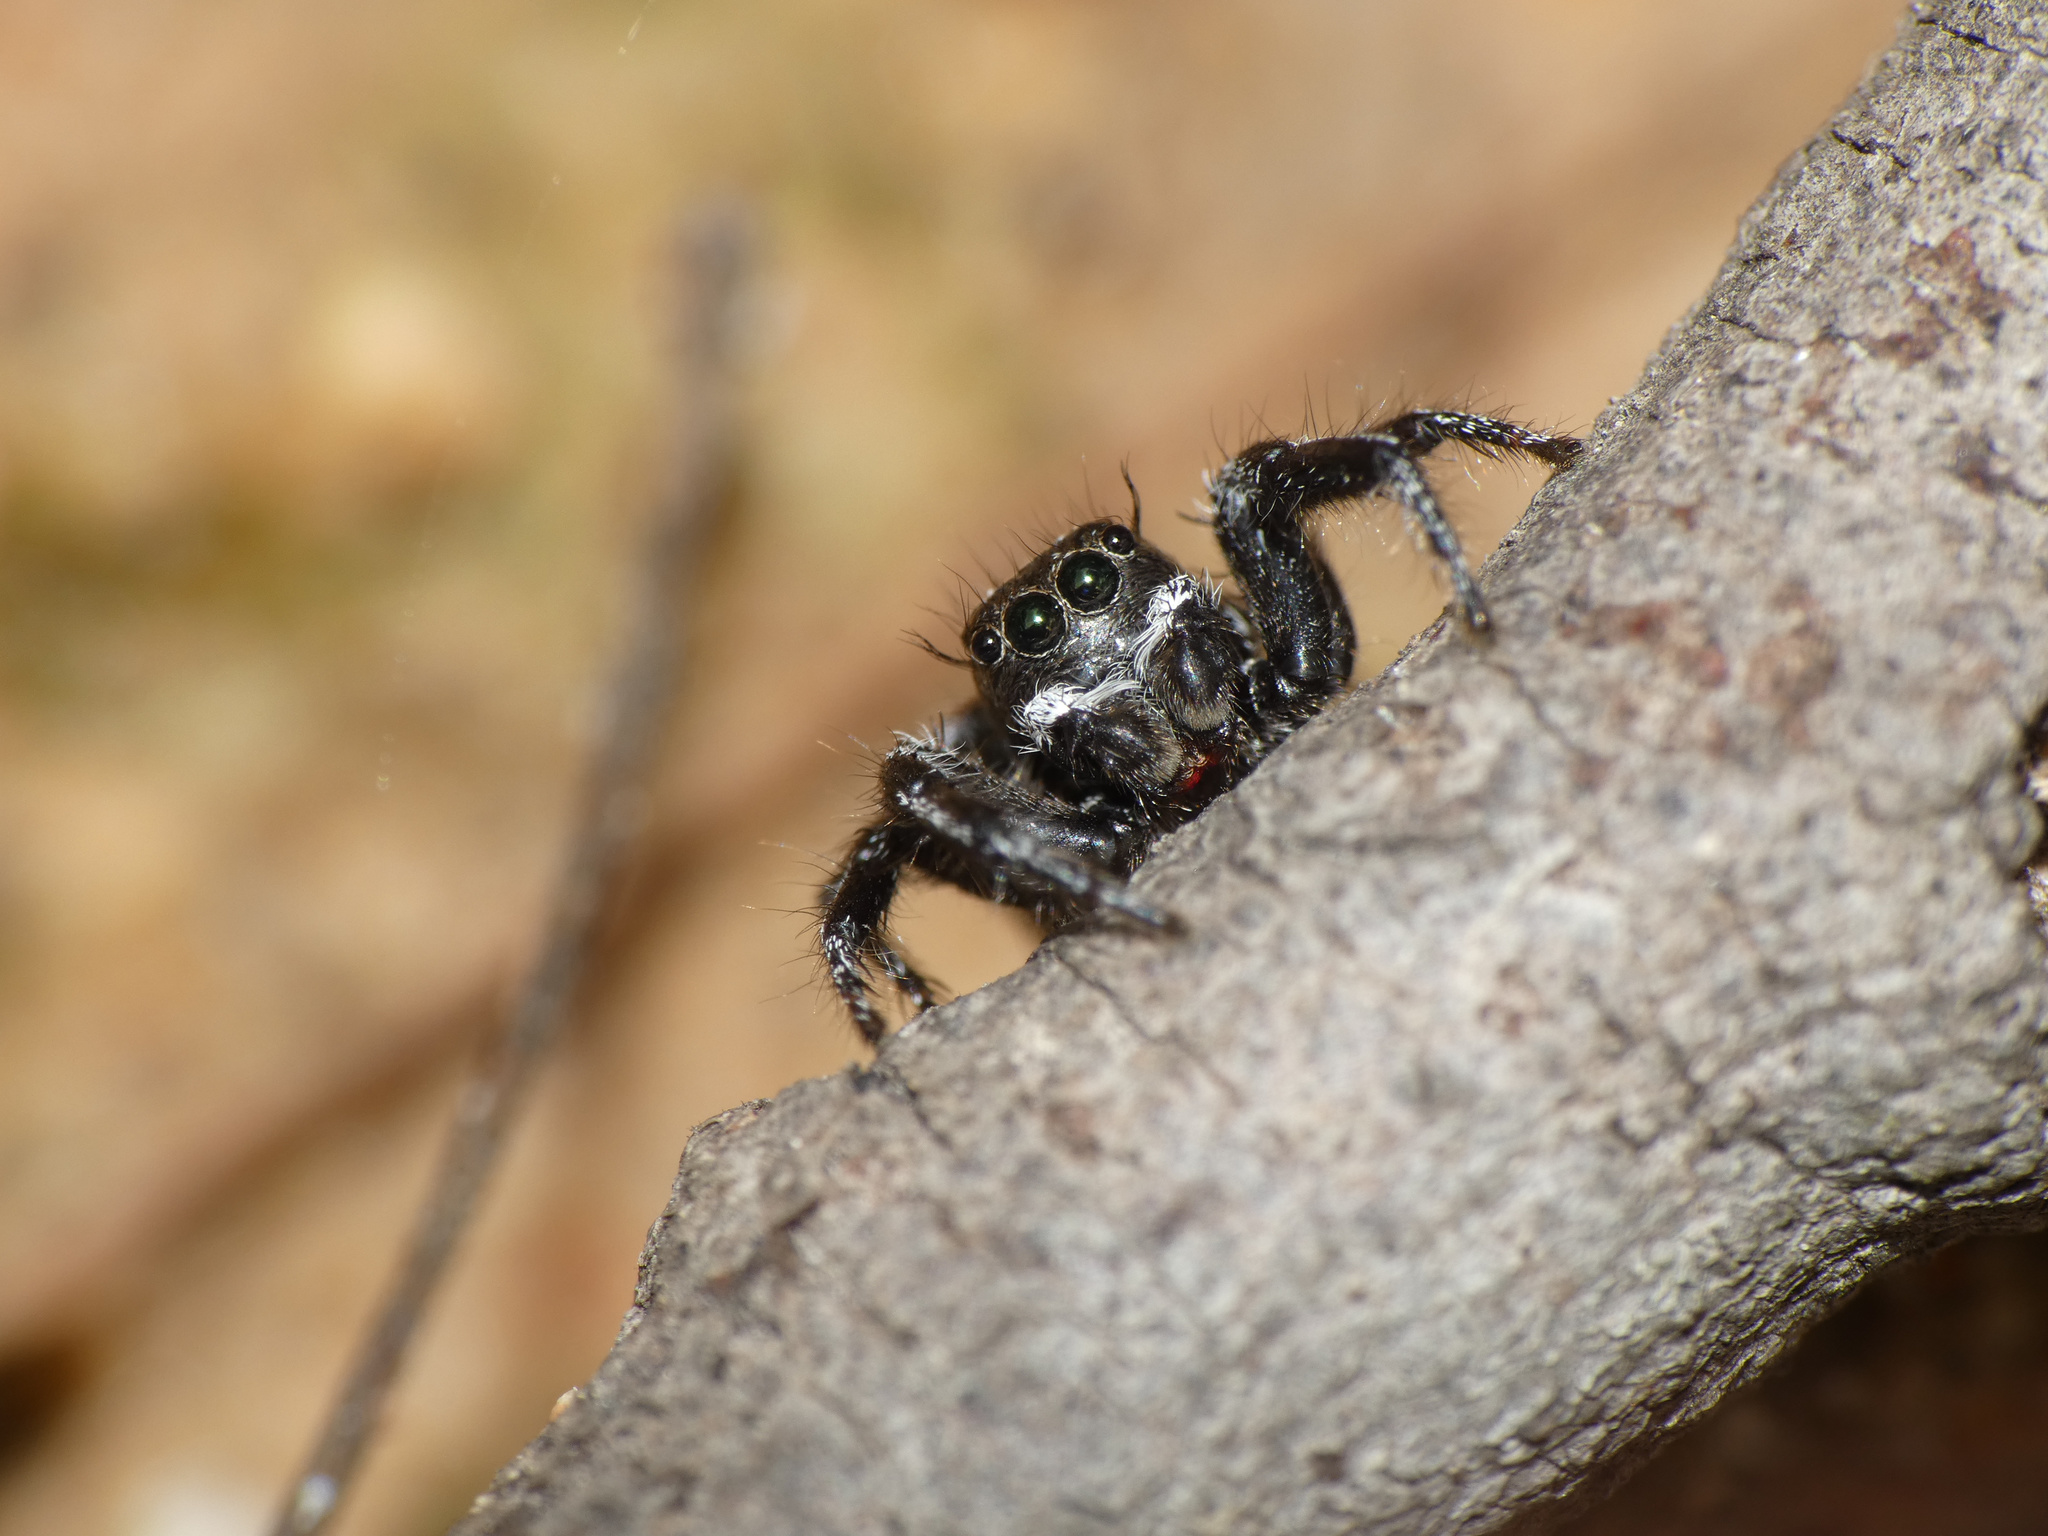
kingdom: Animalia
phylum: Arthropoda
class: Arachnida
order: Araneae
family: Salticidae
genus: Hyllus
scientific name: Hyllus argyrotoxus
